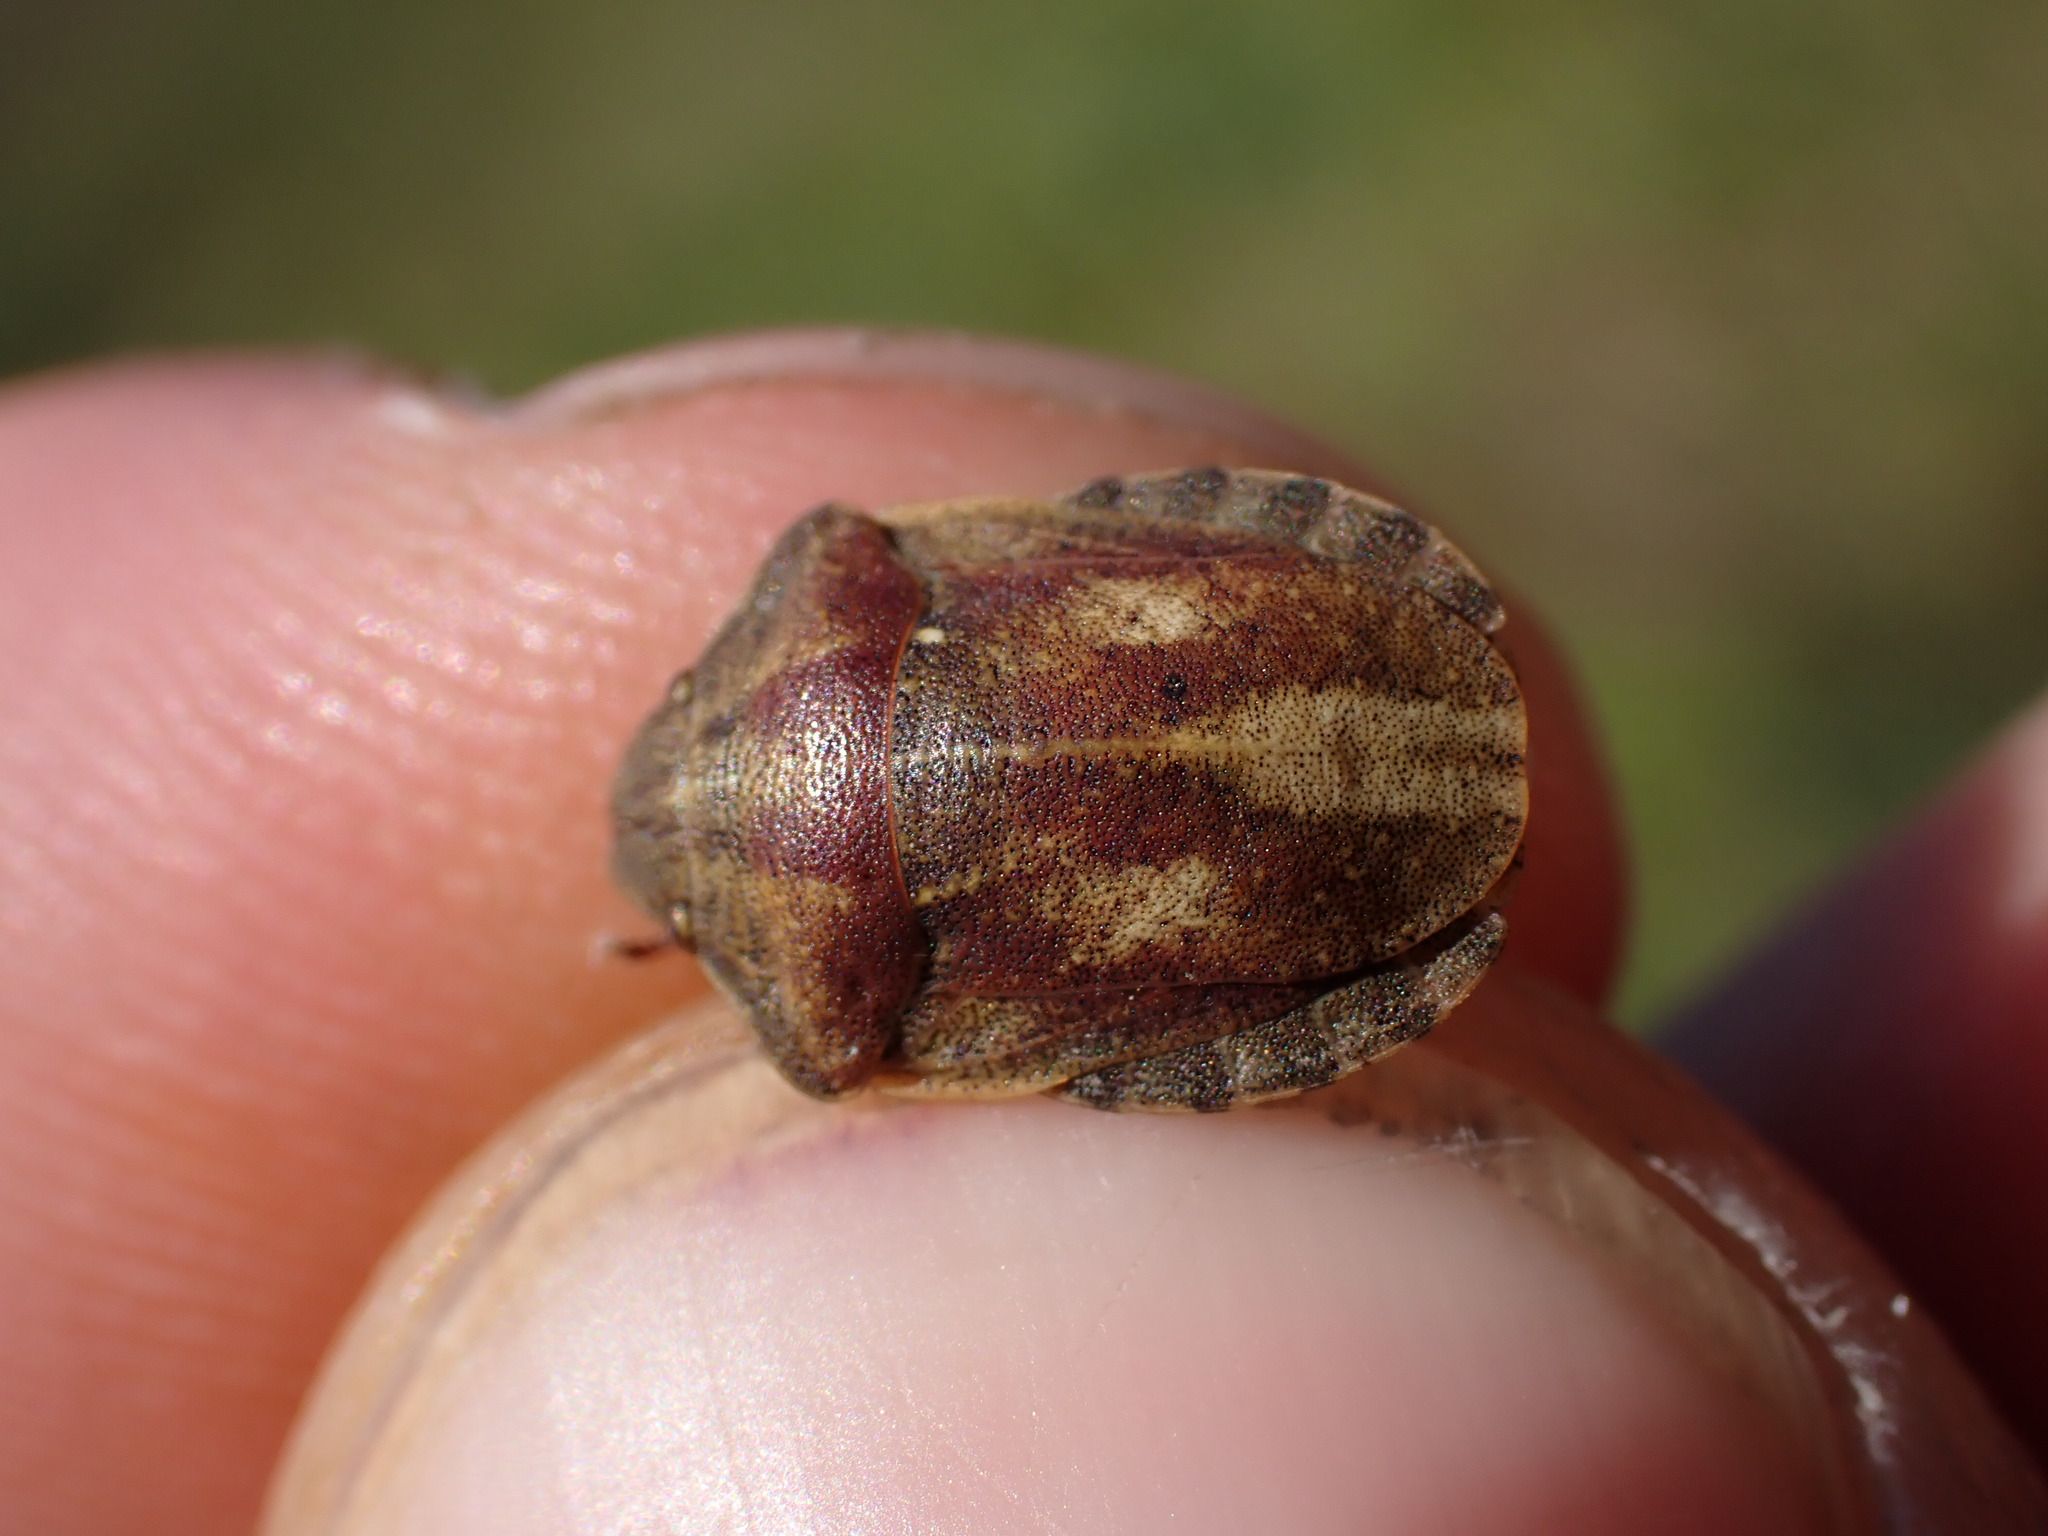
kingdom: Animalia
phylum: Arthropoda
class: Insecta
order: Hemiptera
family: Scutelleridae
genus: Eurygaster
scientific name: Eurygaster testudinaria
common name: Tortoise bug
